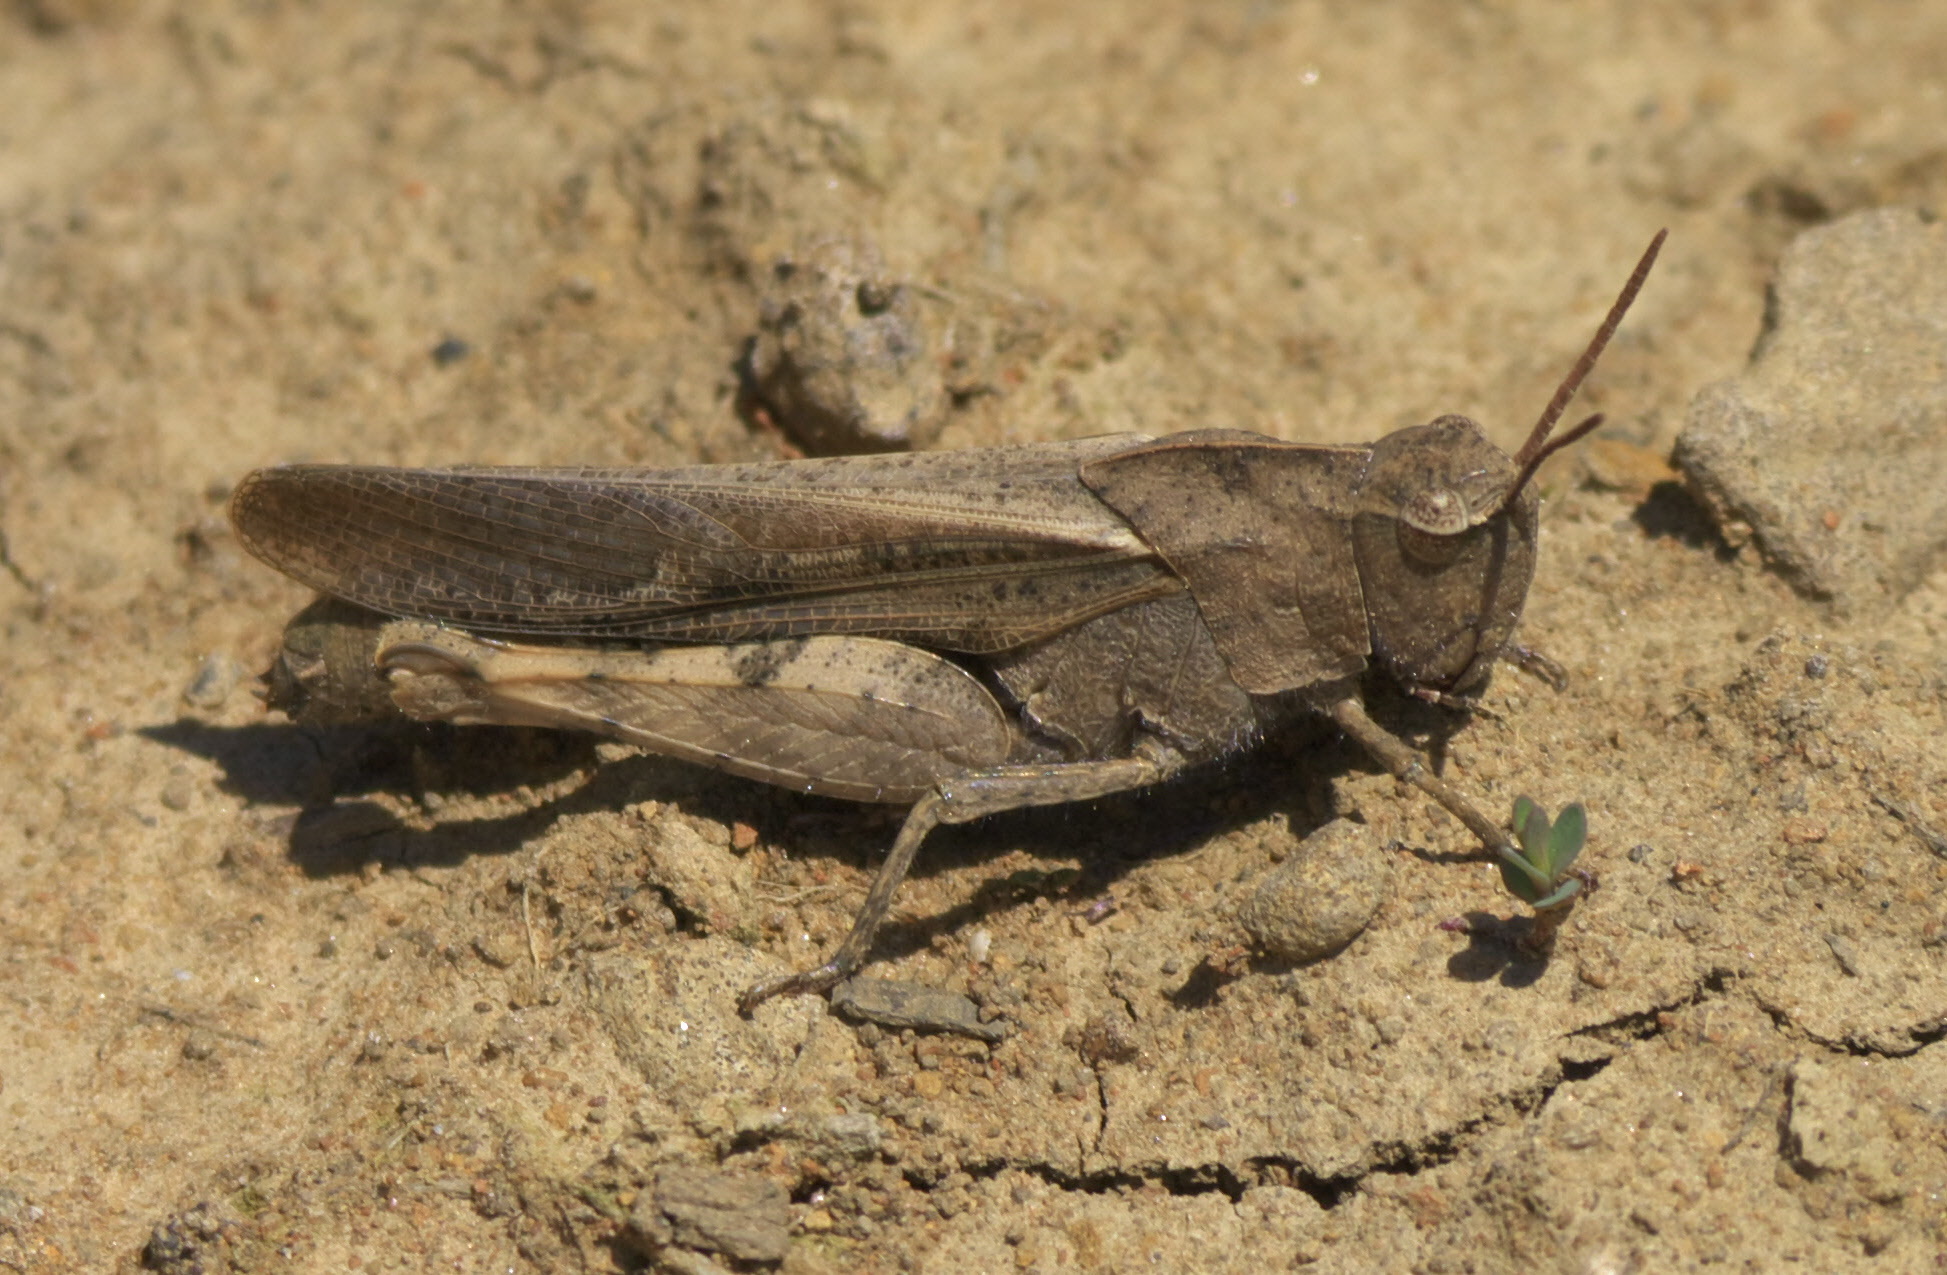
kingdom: Animalia
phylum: Arthropoda
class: Insecta
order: Orthoptera
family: Acrididae
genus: Chortophaga
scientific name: Chortophaga viridifasciata
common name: Green-striped grasshopper
